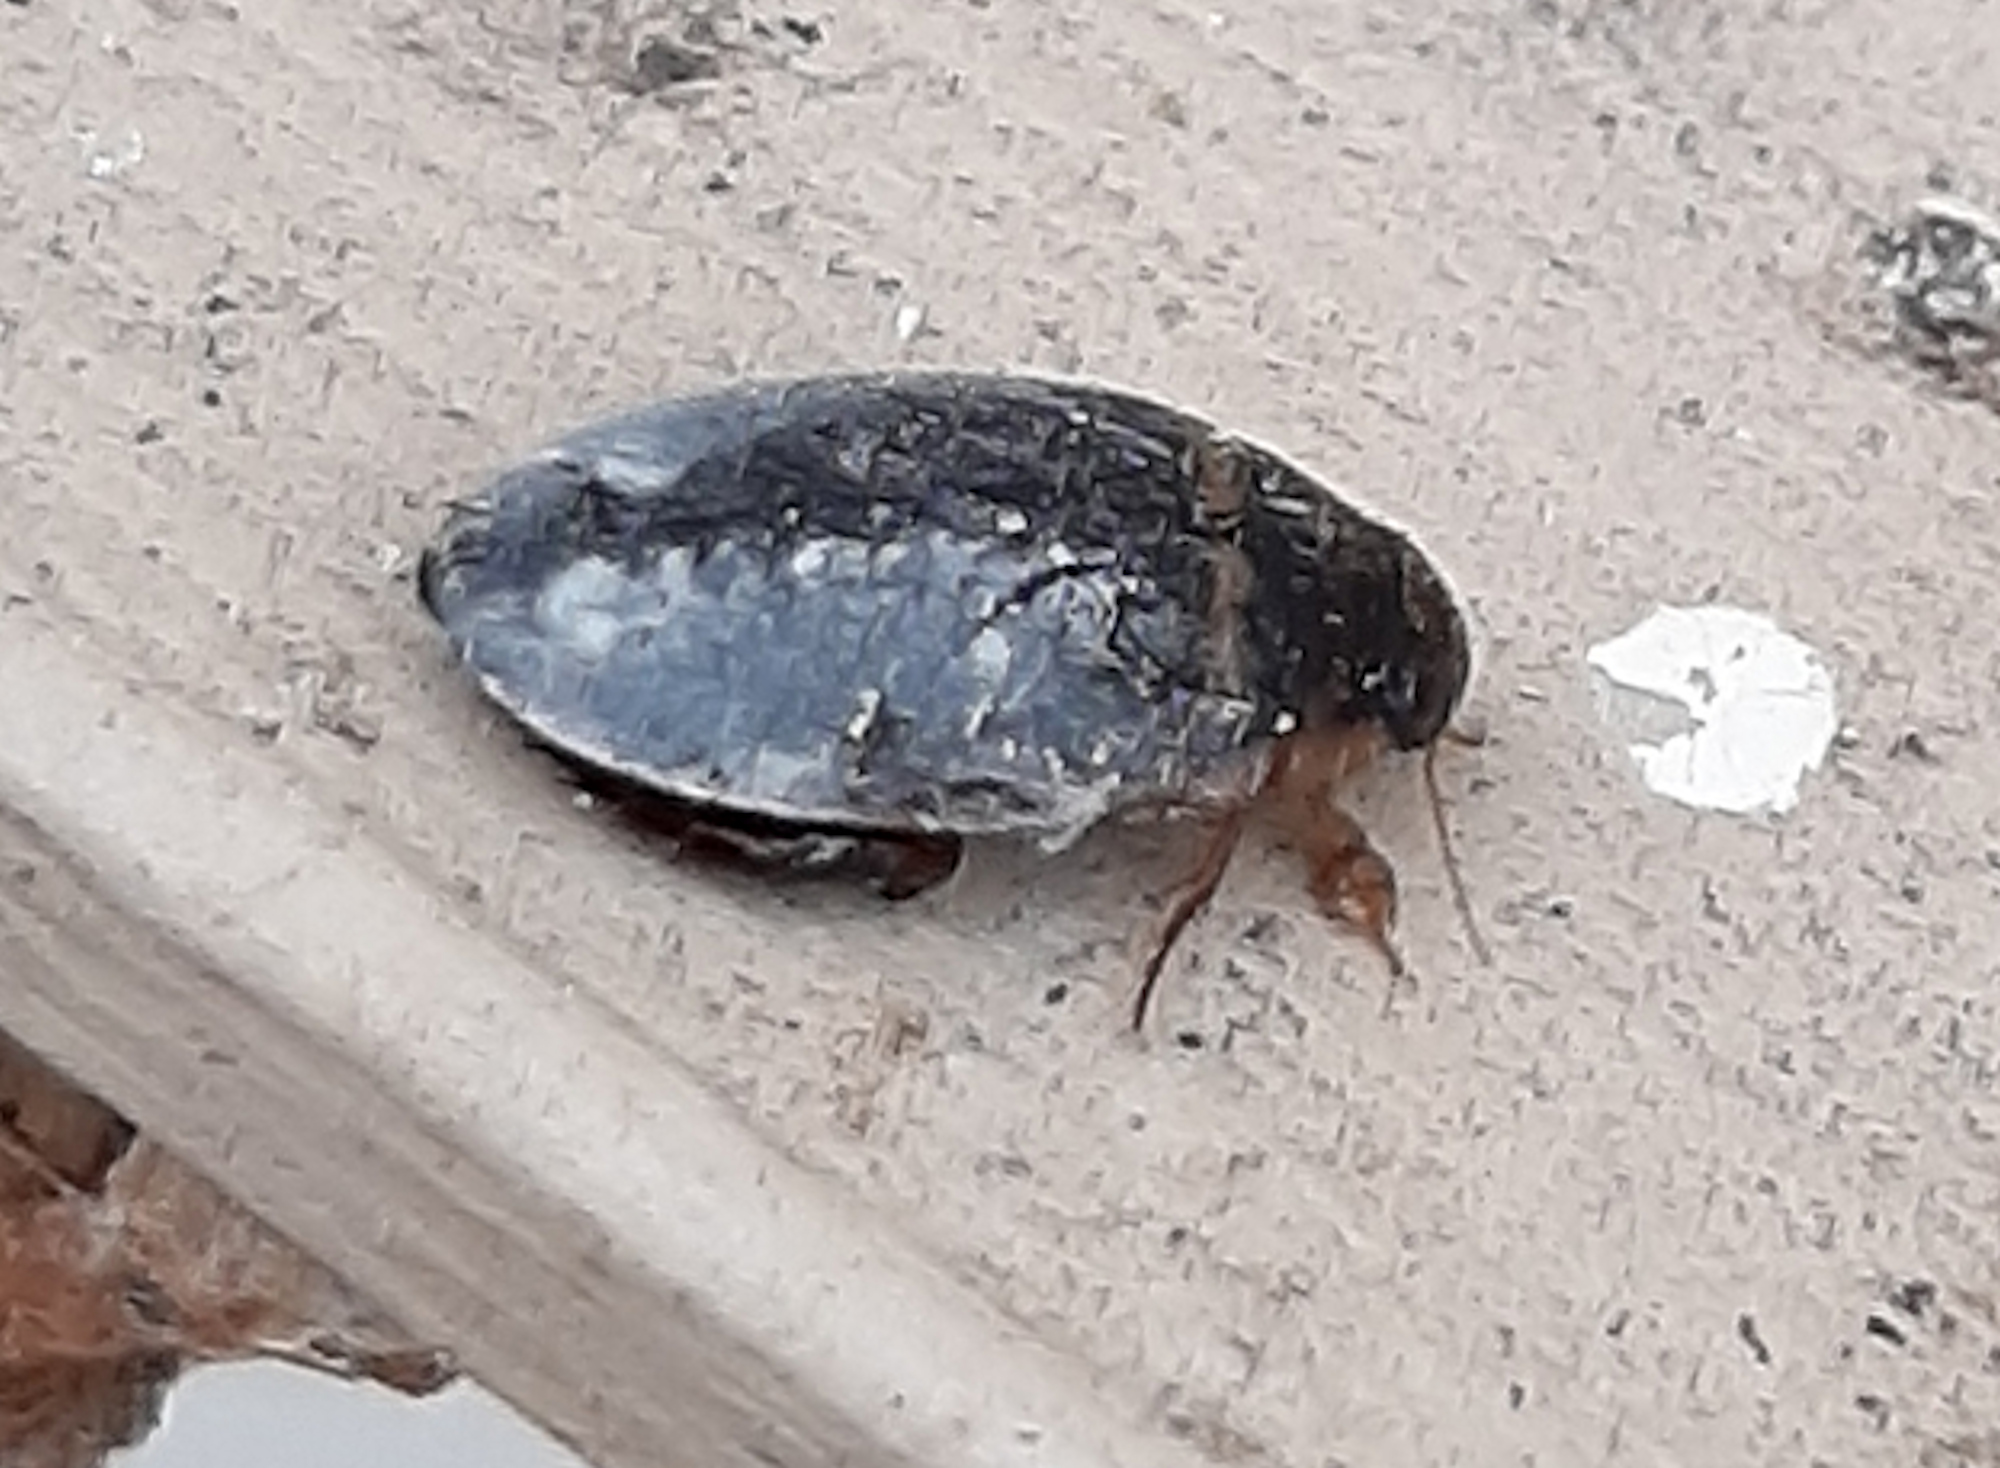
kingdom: Animalia
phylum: Arthropoda
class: Insecta
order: Coleoptera
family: Dytiscidae
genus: Thermonectus
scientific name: Thermonectus basillaris
